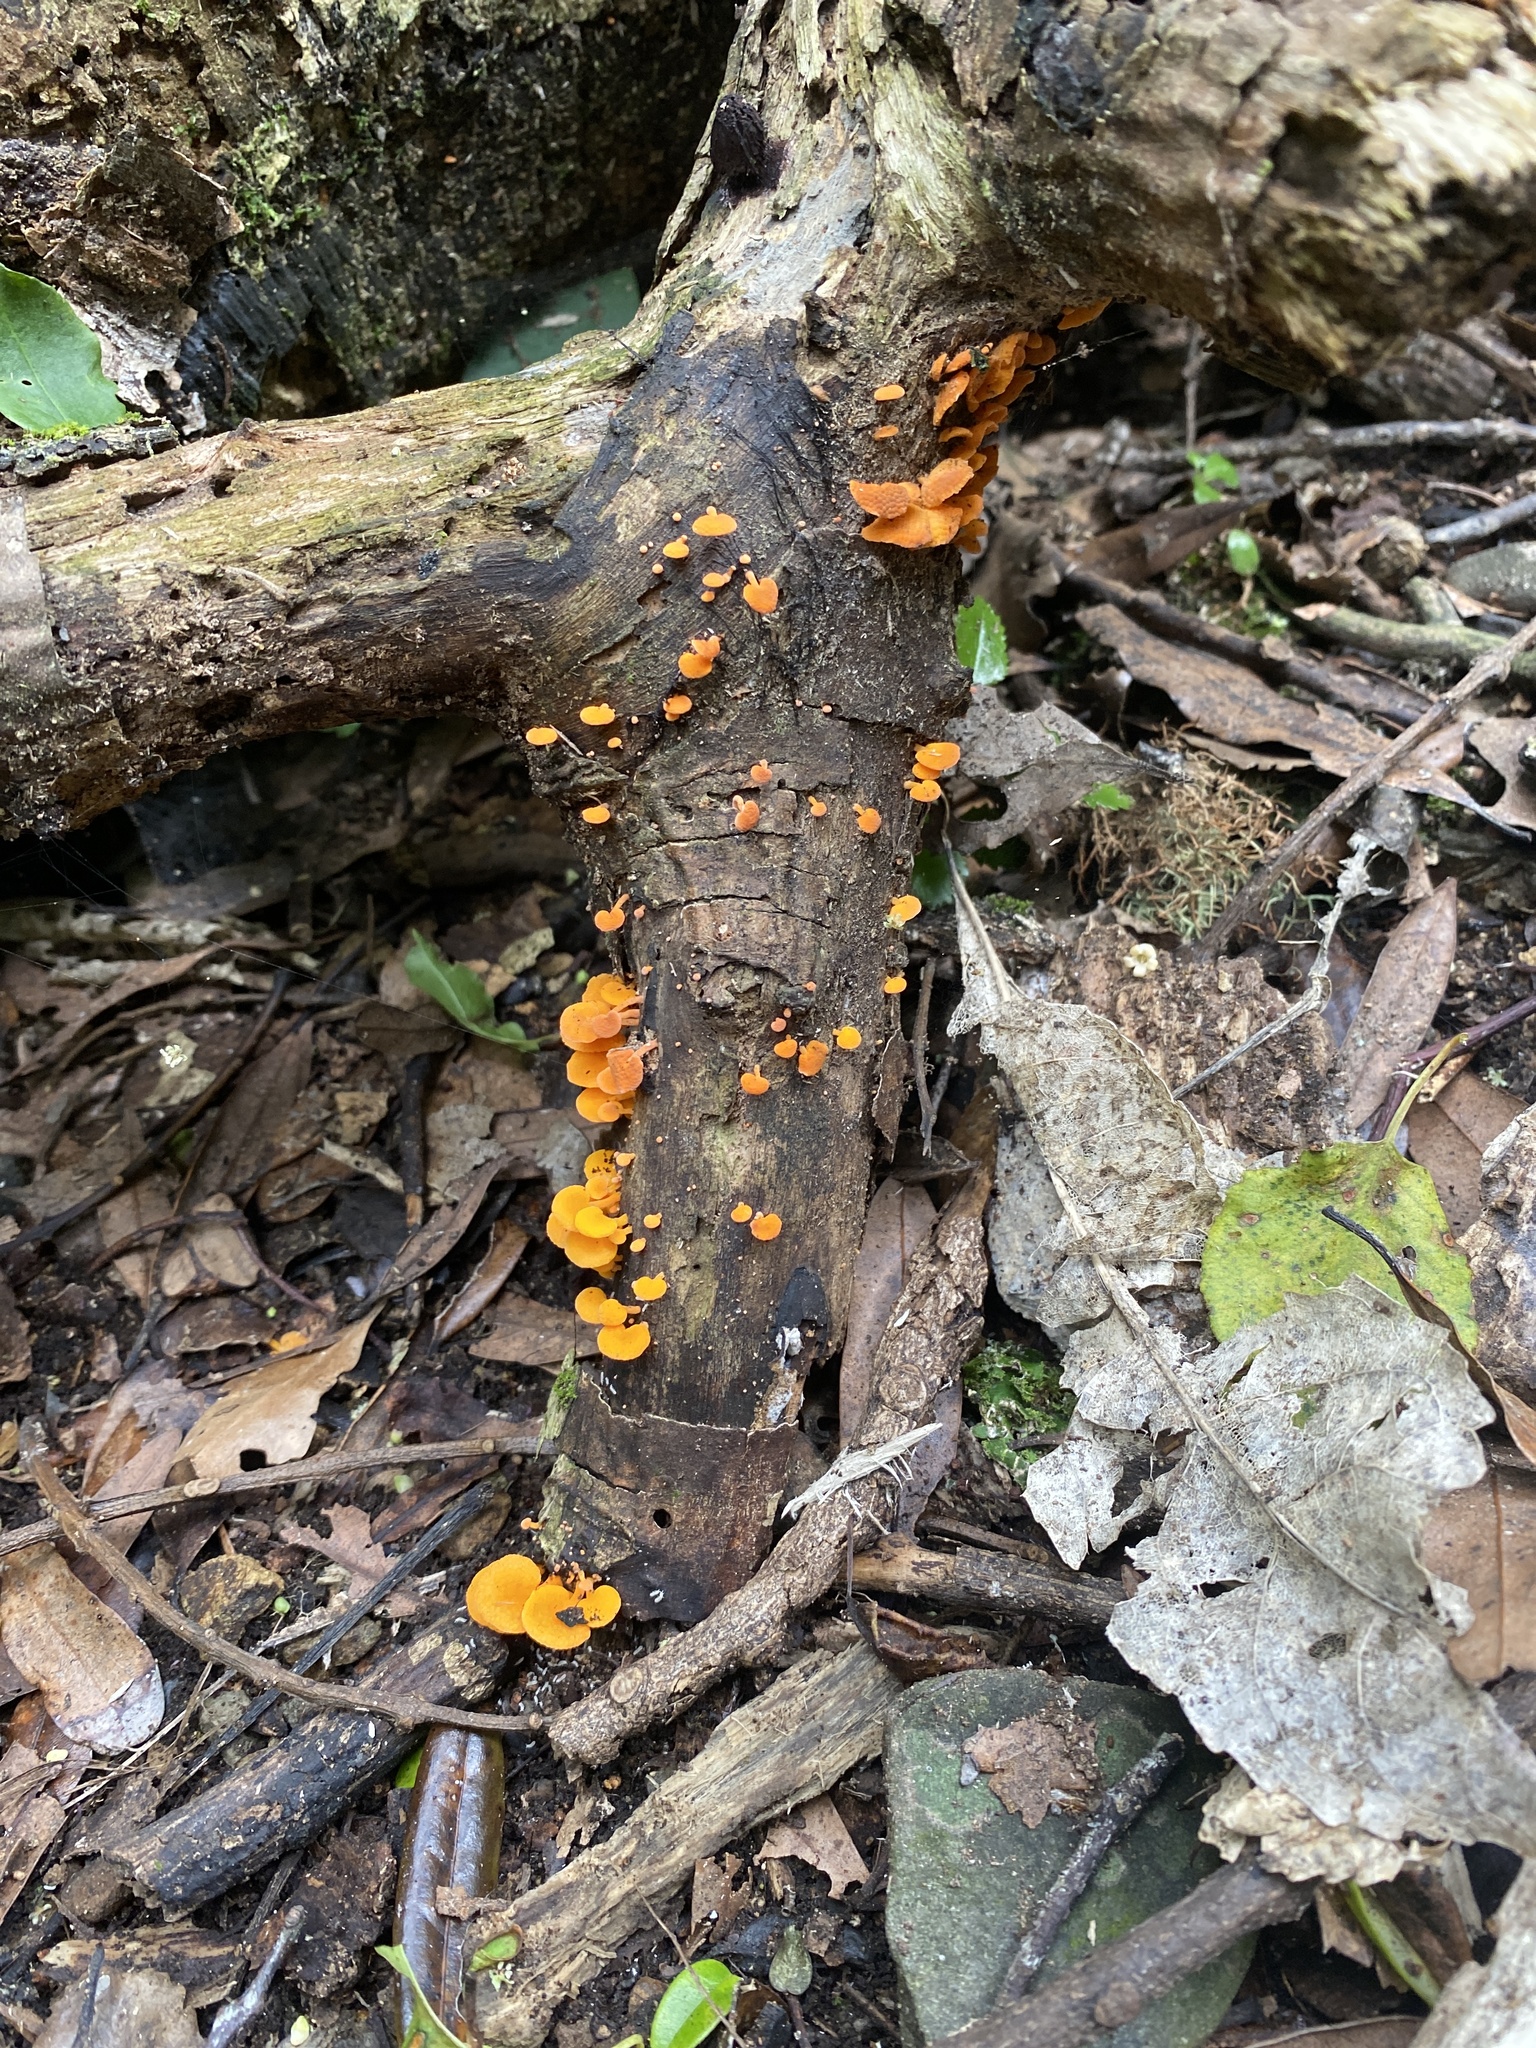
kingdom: Fungi
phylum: Basidiomycota
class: Agaricomycetes
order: Agaricales
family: Mycenaceae
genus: Favolaschia
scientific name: Favolaschia claudopus
